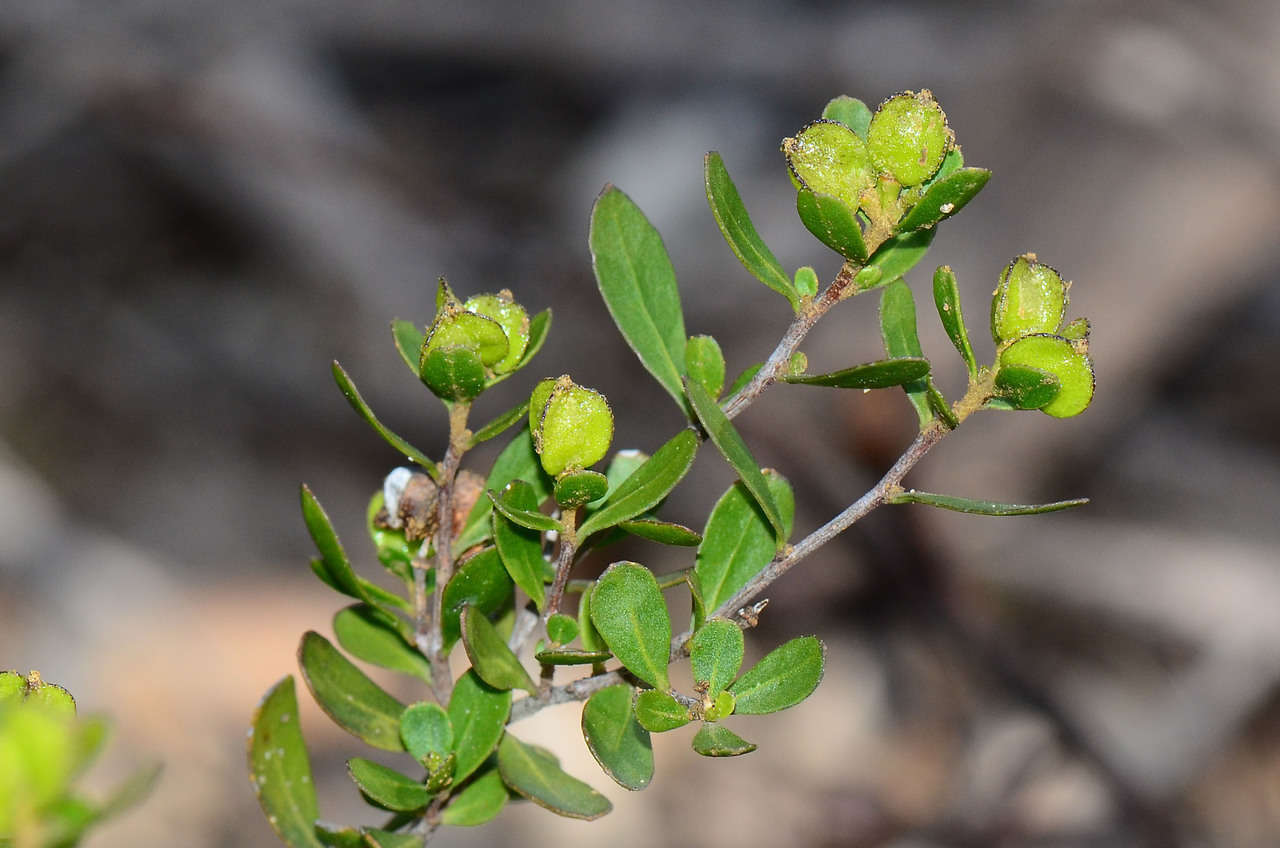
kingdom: Plantae
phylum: Tracheophyta
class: Magnoliopsida
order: Sapindales
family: Sapindaceae
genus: Dodonaea
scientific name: Dodonaea bursariifolia
